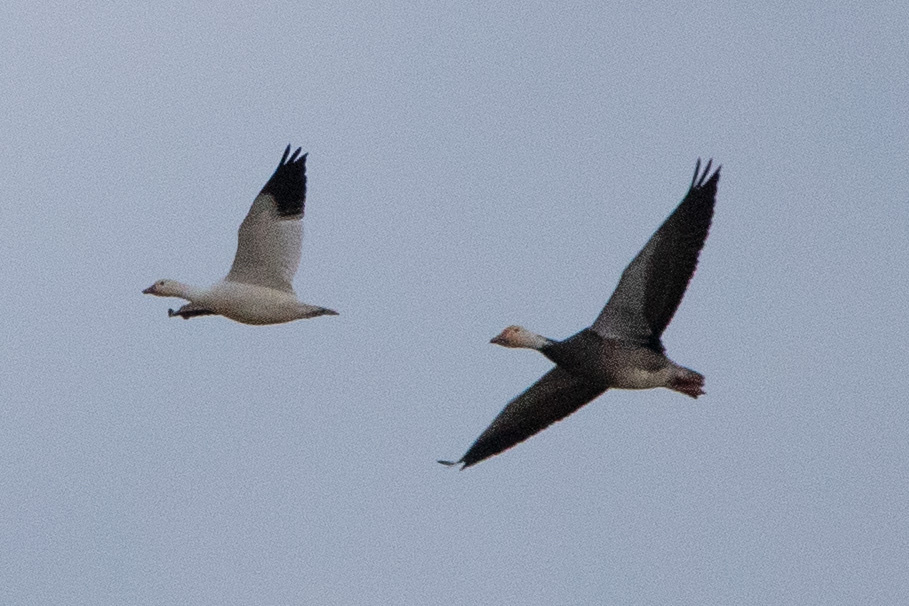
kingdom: Animalia
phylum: Chordata
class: Aves
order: Anseriformes
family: Anatidae
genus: Anser
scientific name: Anser rossii
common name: Ross's goose
